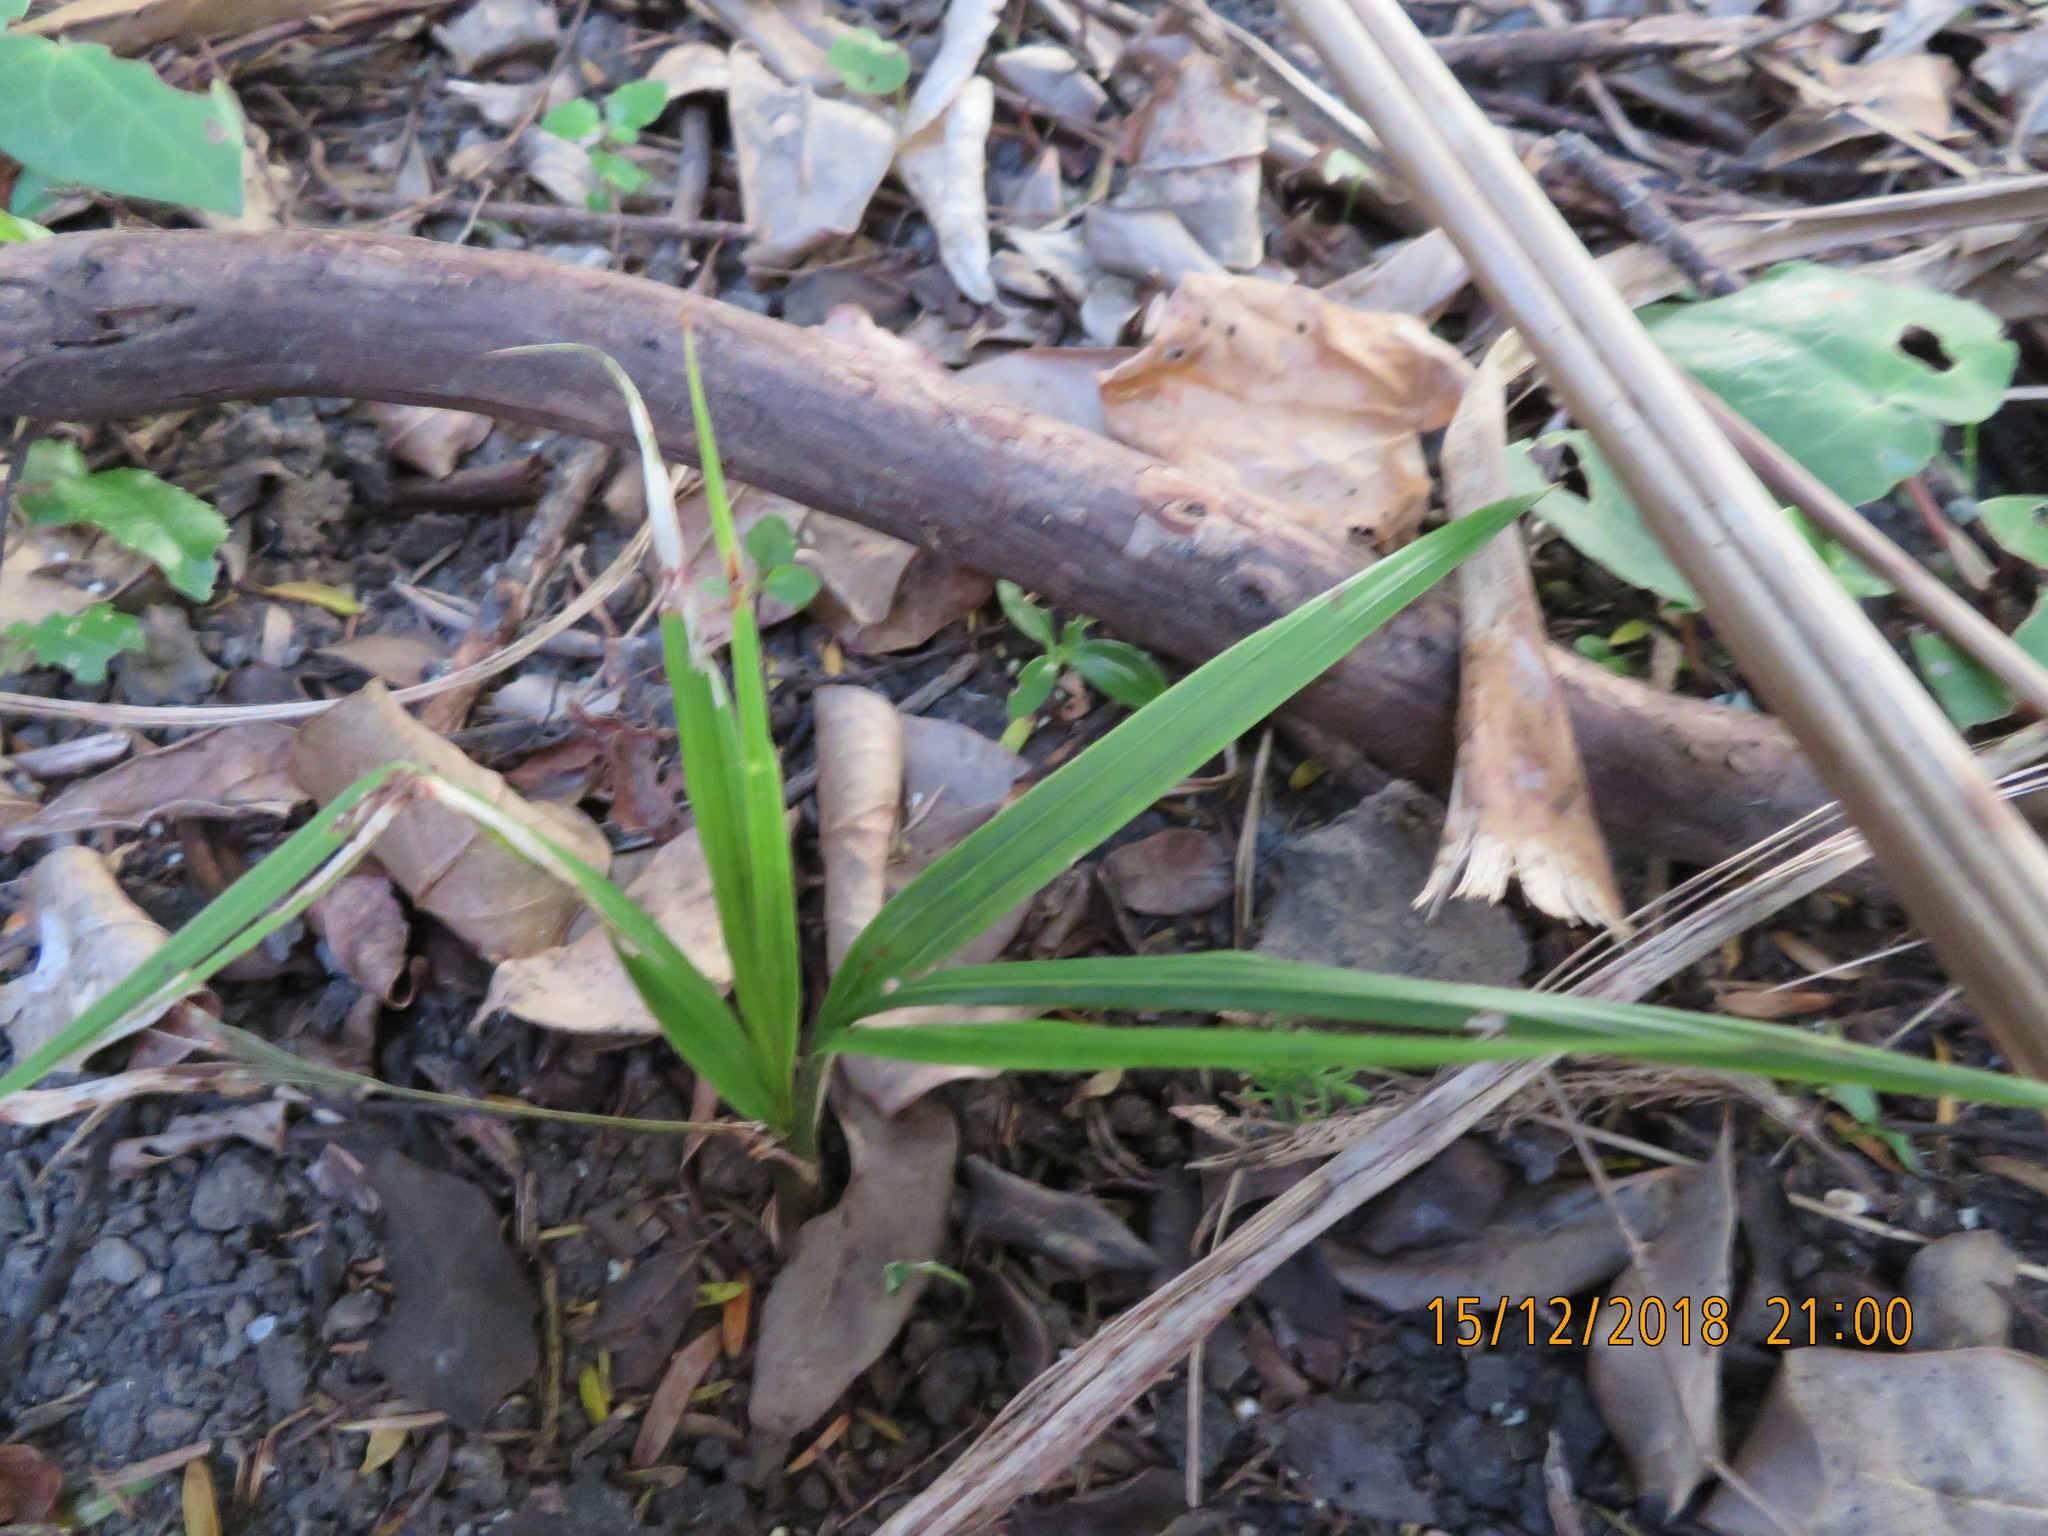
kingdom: Plantae
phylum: Tracheophyta
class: Liliopsida
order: Arecales
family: Arecaceae
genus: Rhopalostylis
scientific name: Rhopalostylis sapida
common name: Feather-duster palm
